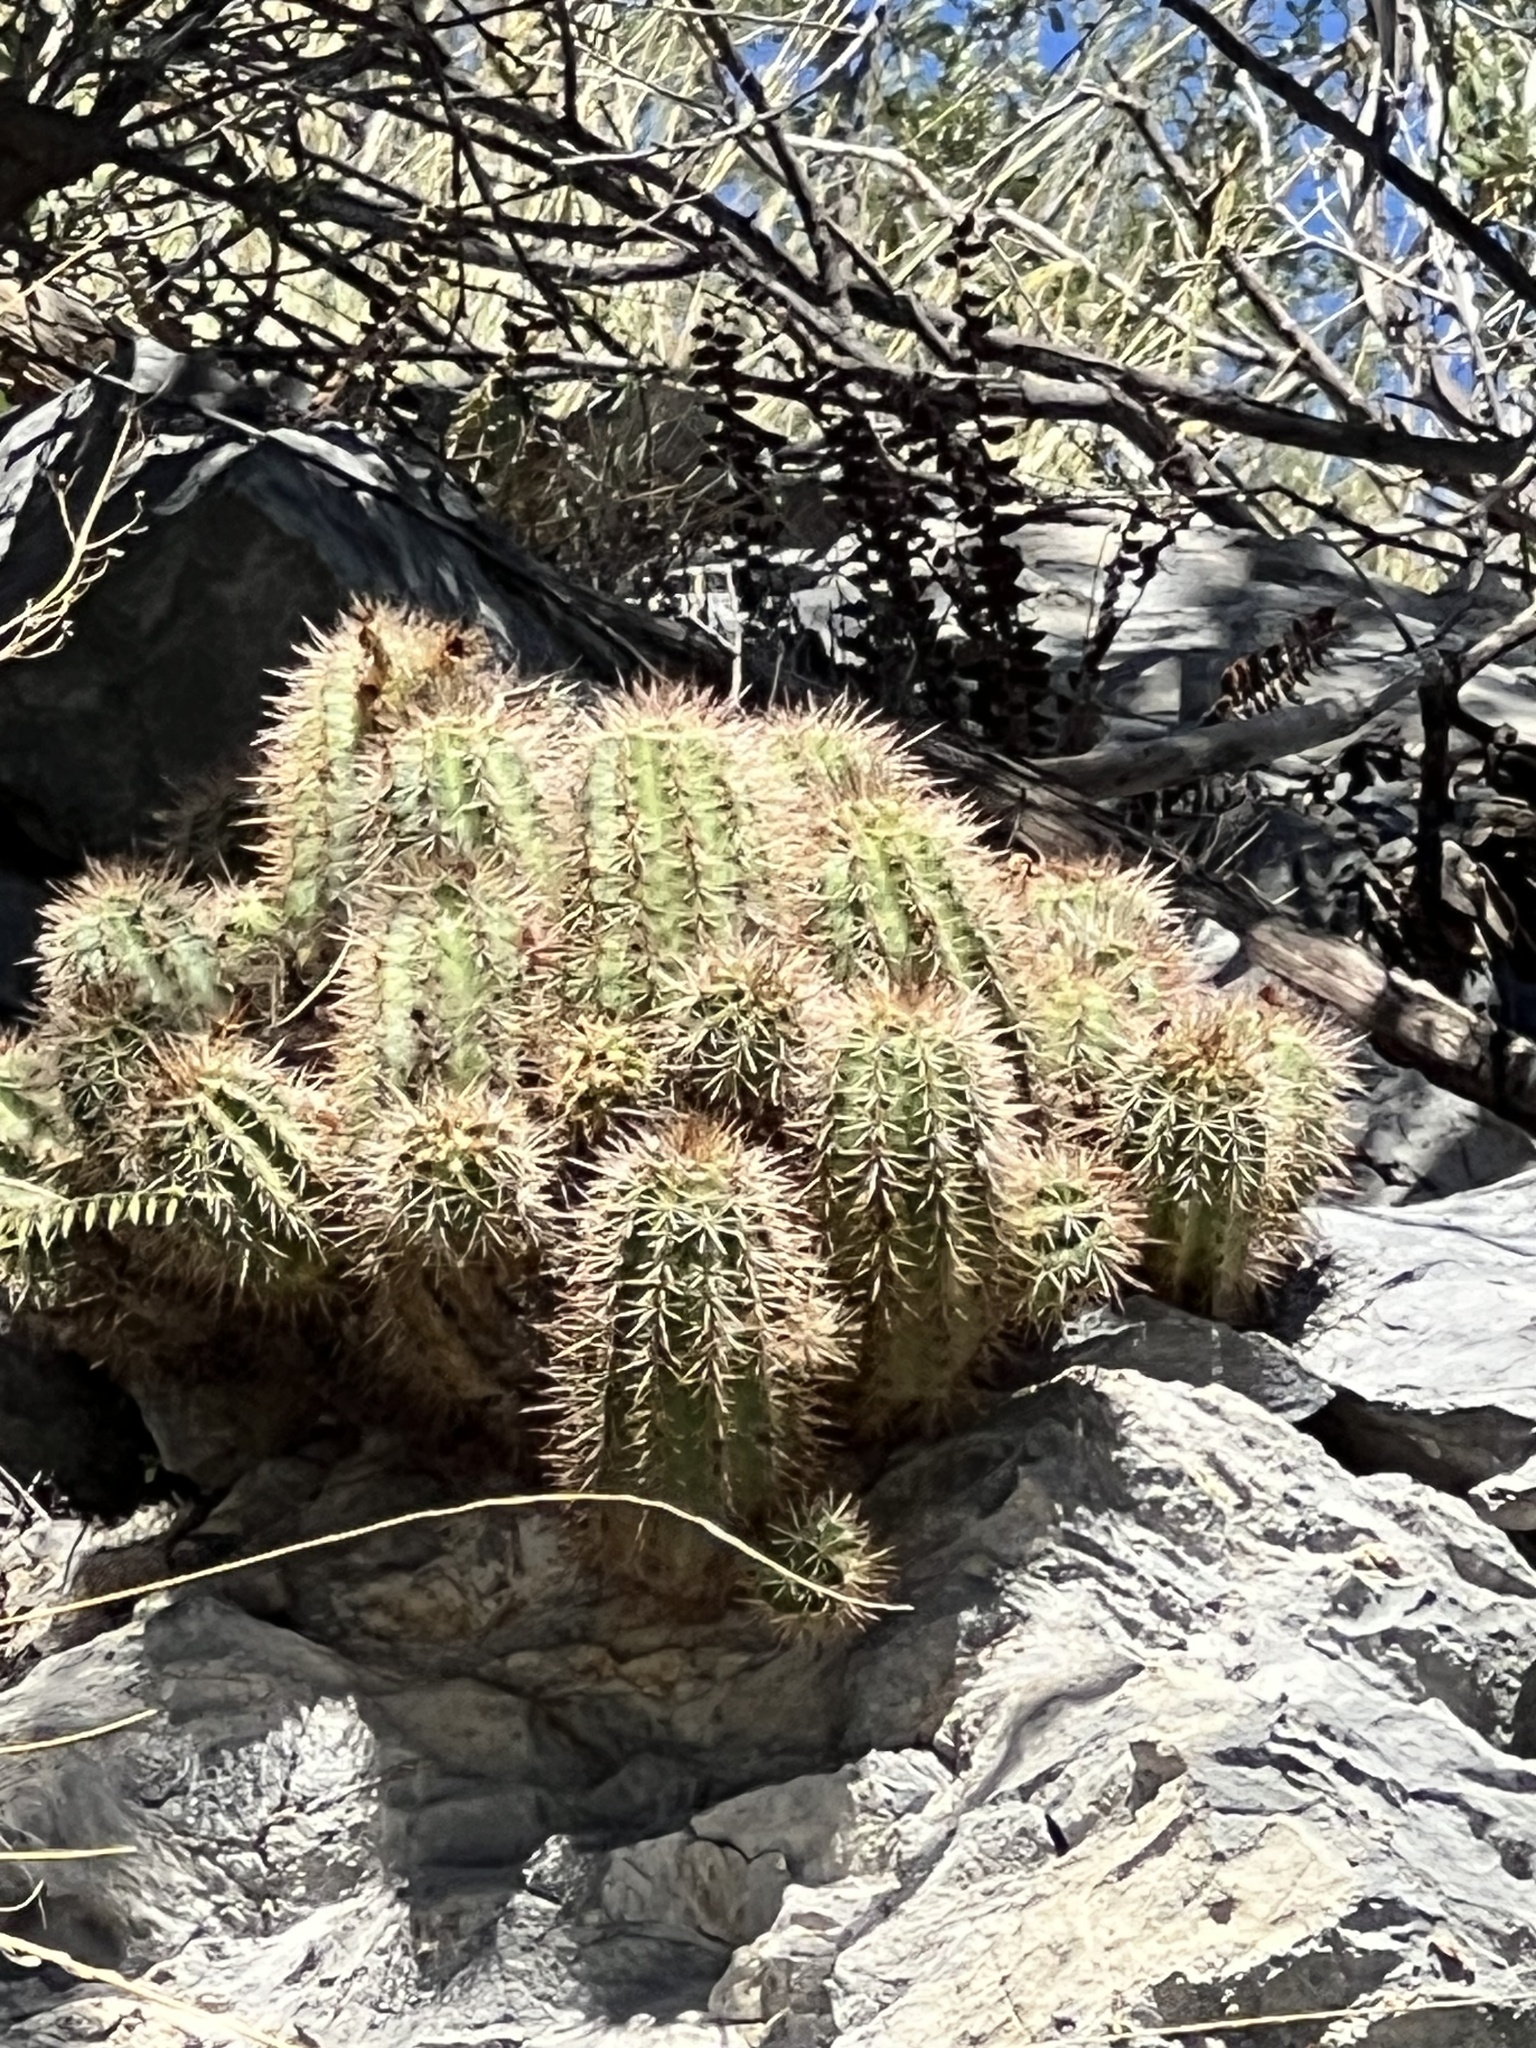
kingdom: Plantae
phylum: Tracheophyta
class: Magnoliopsida
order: Caryophyllales
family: Cactaceae
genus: Echinocereus
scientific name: Echinocereus arizonicus
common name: Arizona hedgehog cactus
